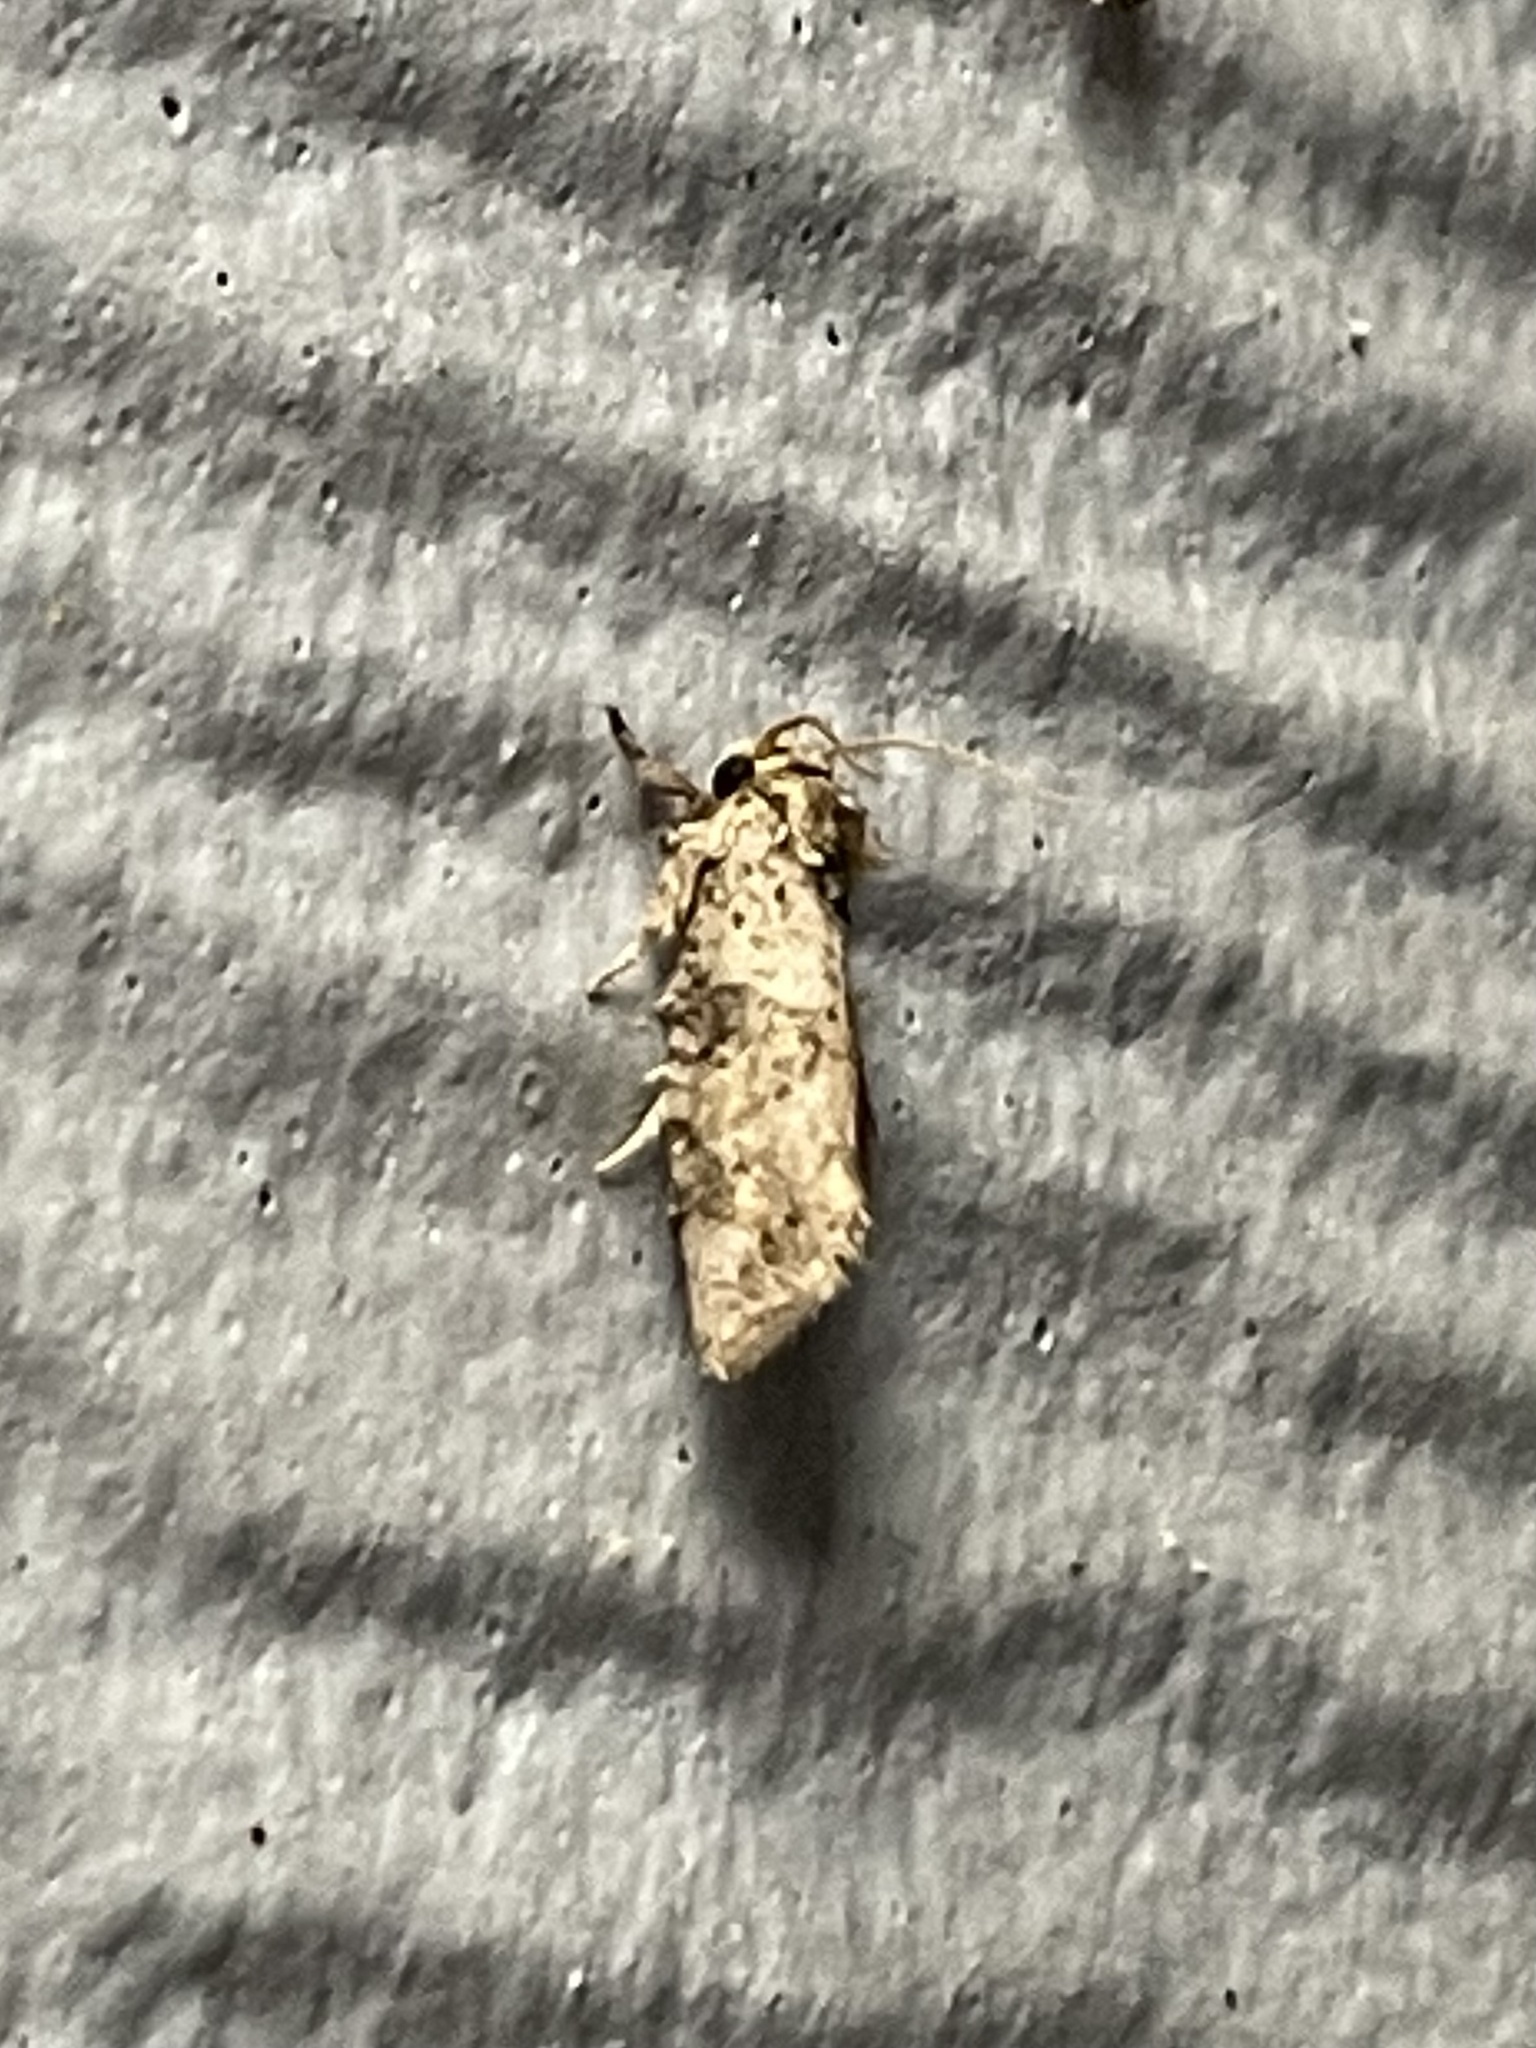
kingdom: Animalia
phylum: Arthropoda
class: Insecta
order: Lepidoptera
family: Tineidae
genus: Acrolophus
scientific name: Acrolophus piger
